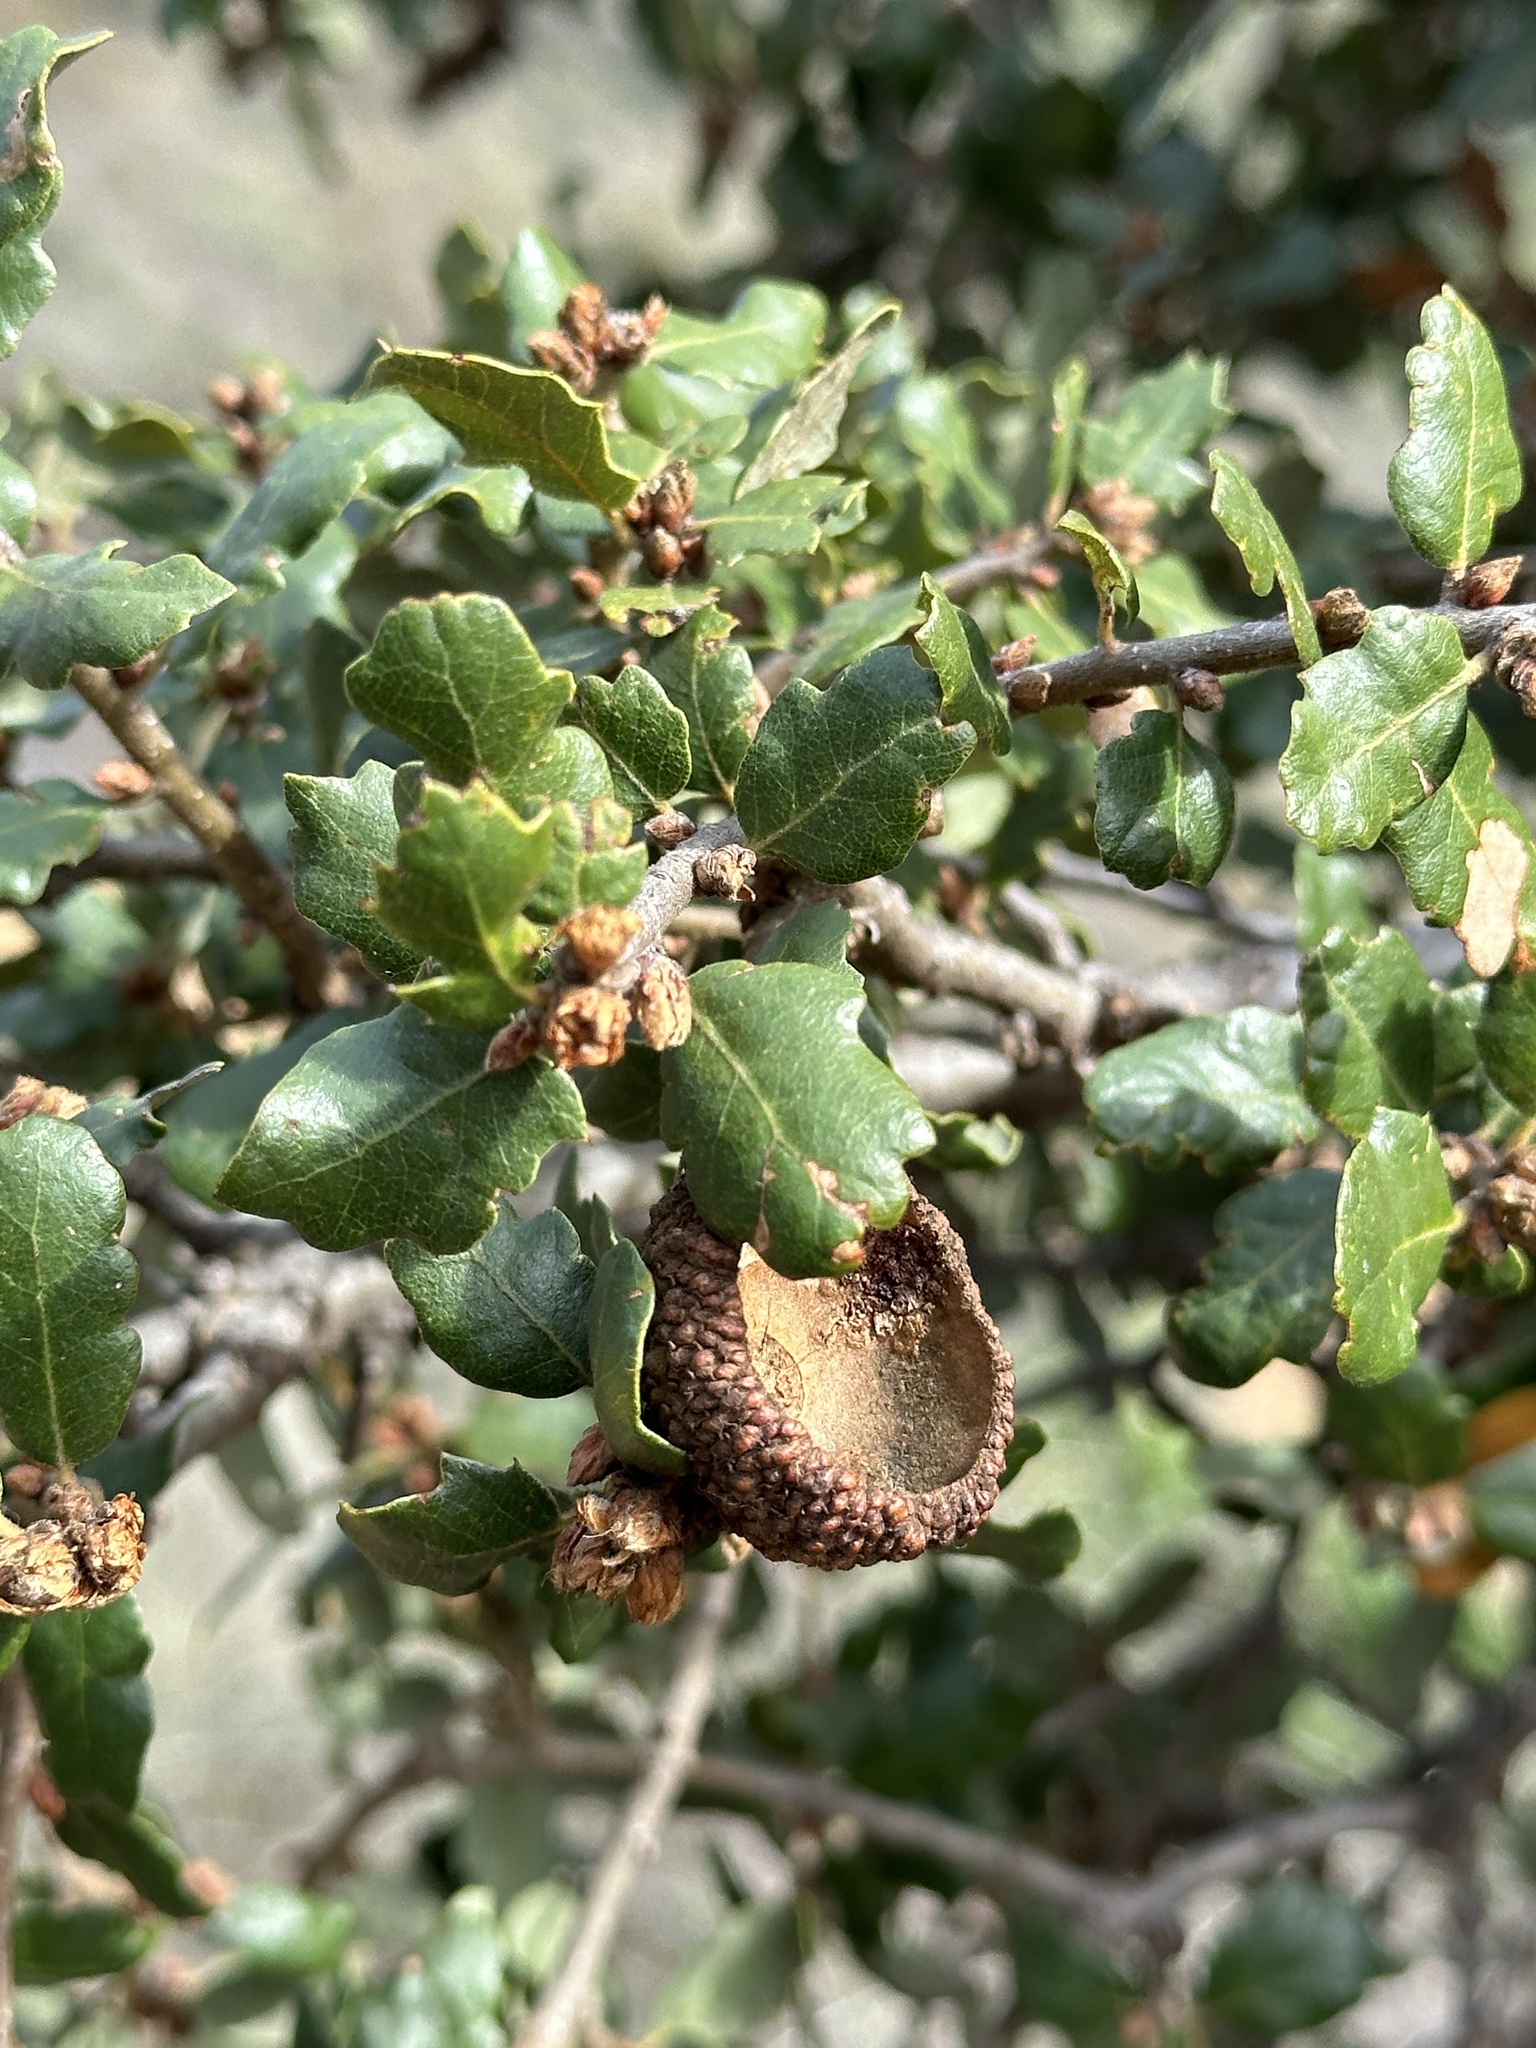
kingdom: Plantae
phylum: Tracheophyta
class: Magnoliopsida
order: Fagales
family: Fagaceae
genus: Quercus
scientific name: Quercus berberidifolia
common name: California scrub oak
